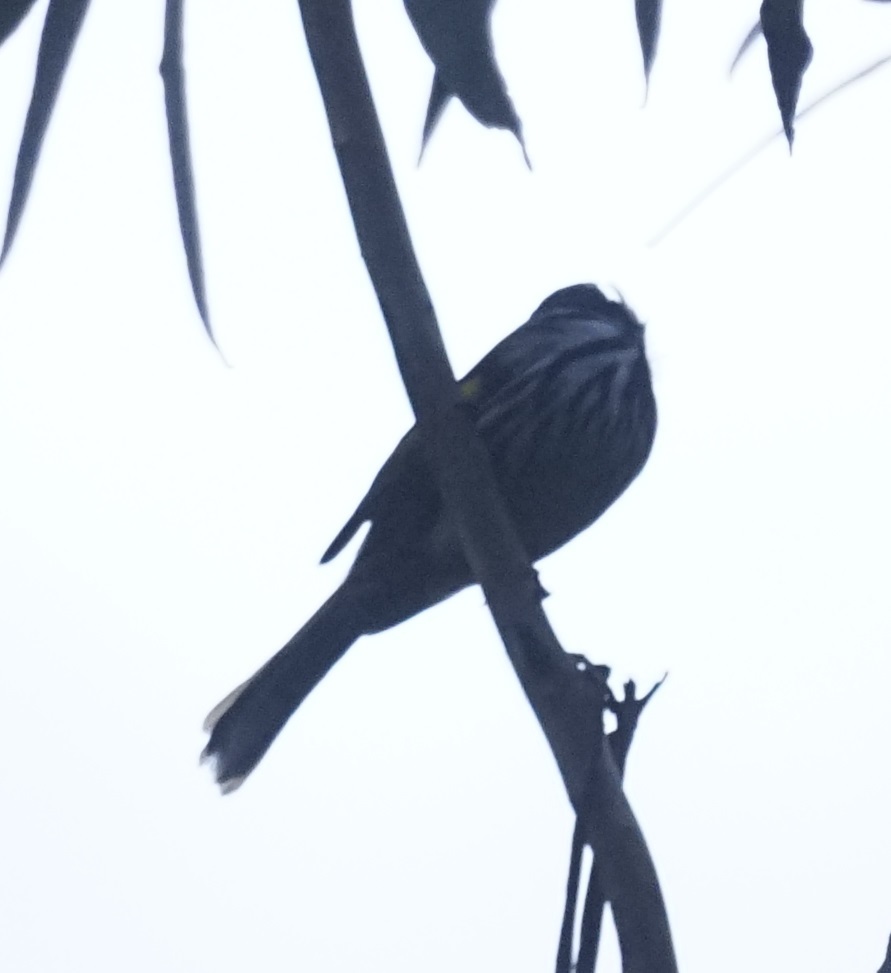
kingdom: Animalia
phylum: Chordata
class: Aves
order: Passeriformes
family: Meliphagidae
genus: Phylidonyris
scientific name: Phylidonyris novaehollandiae
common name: New holland honeyeater
